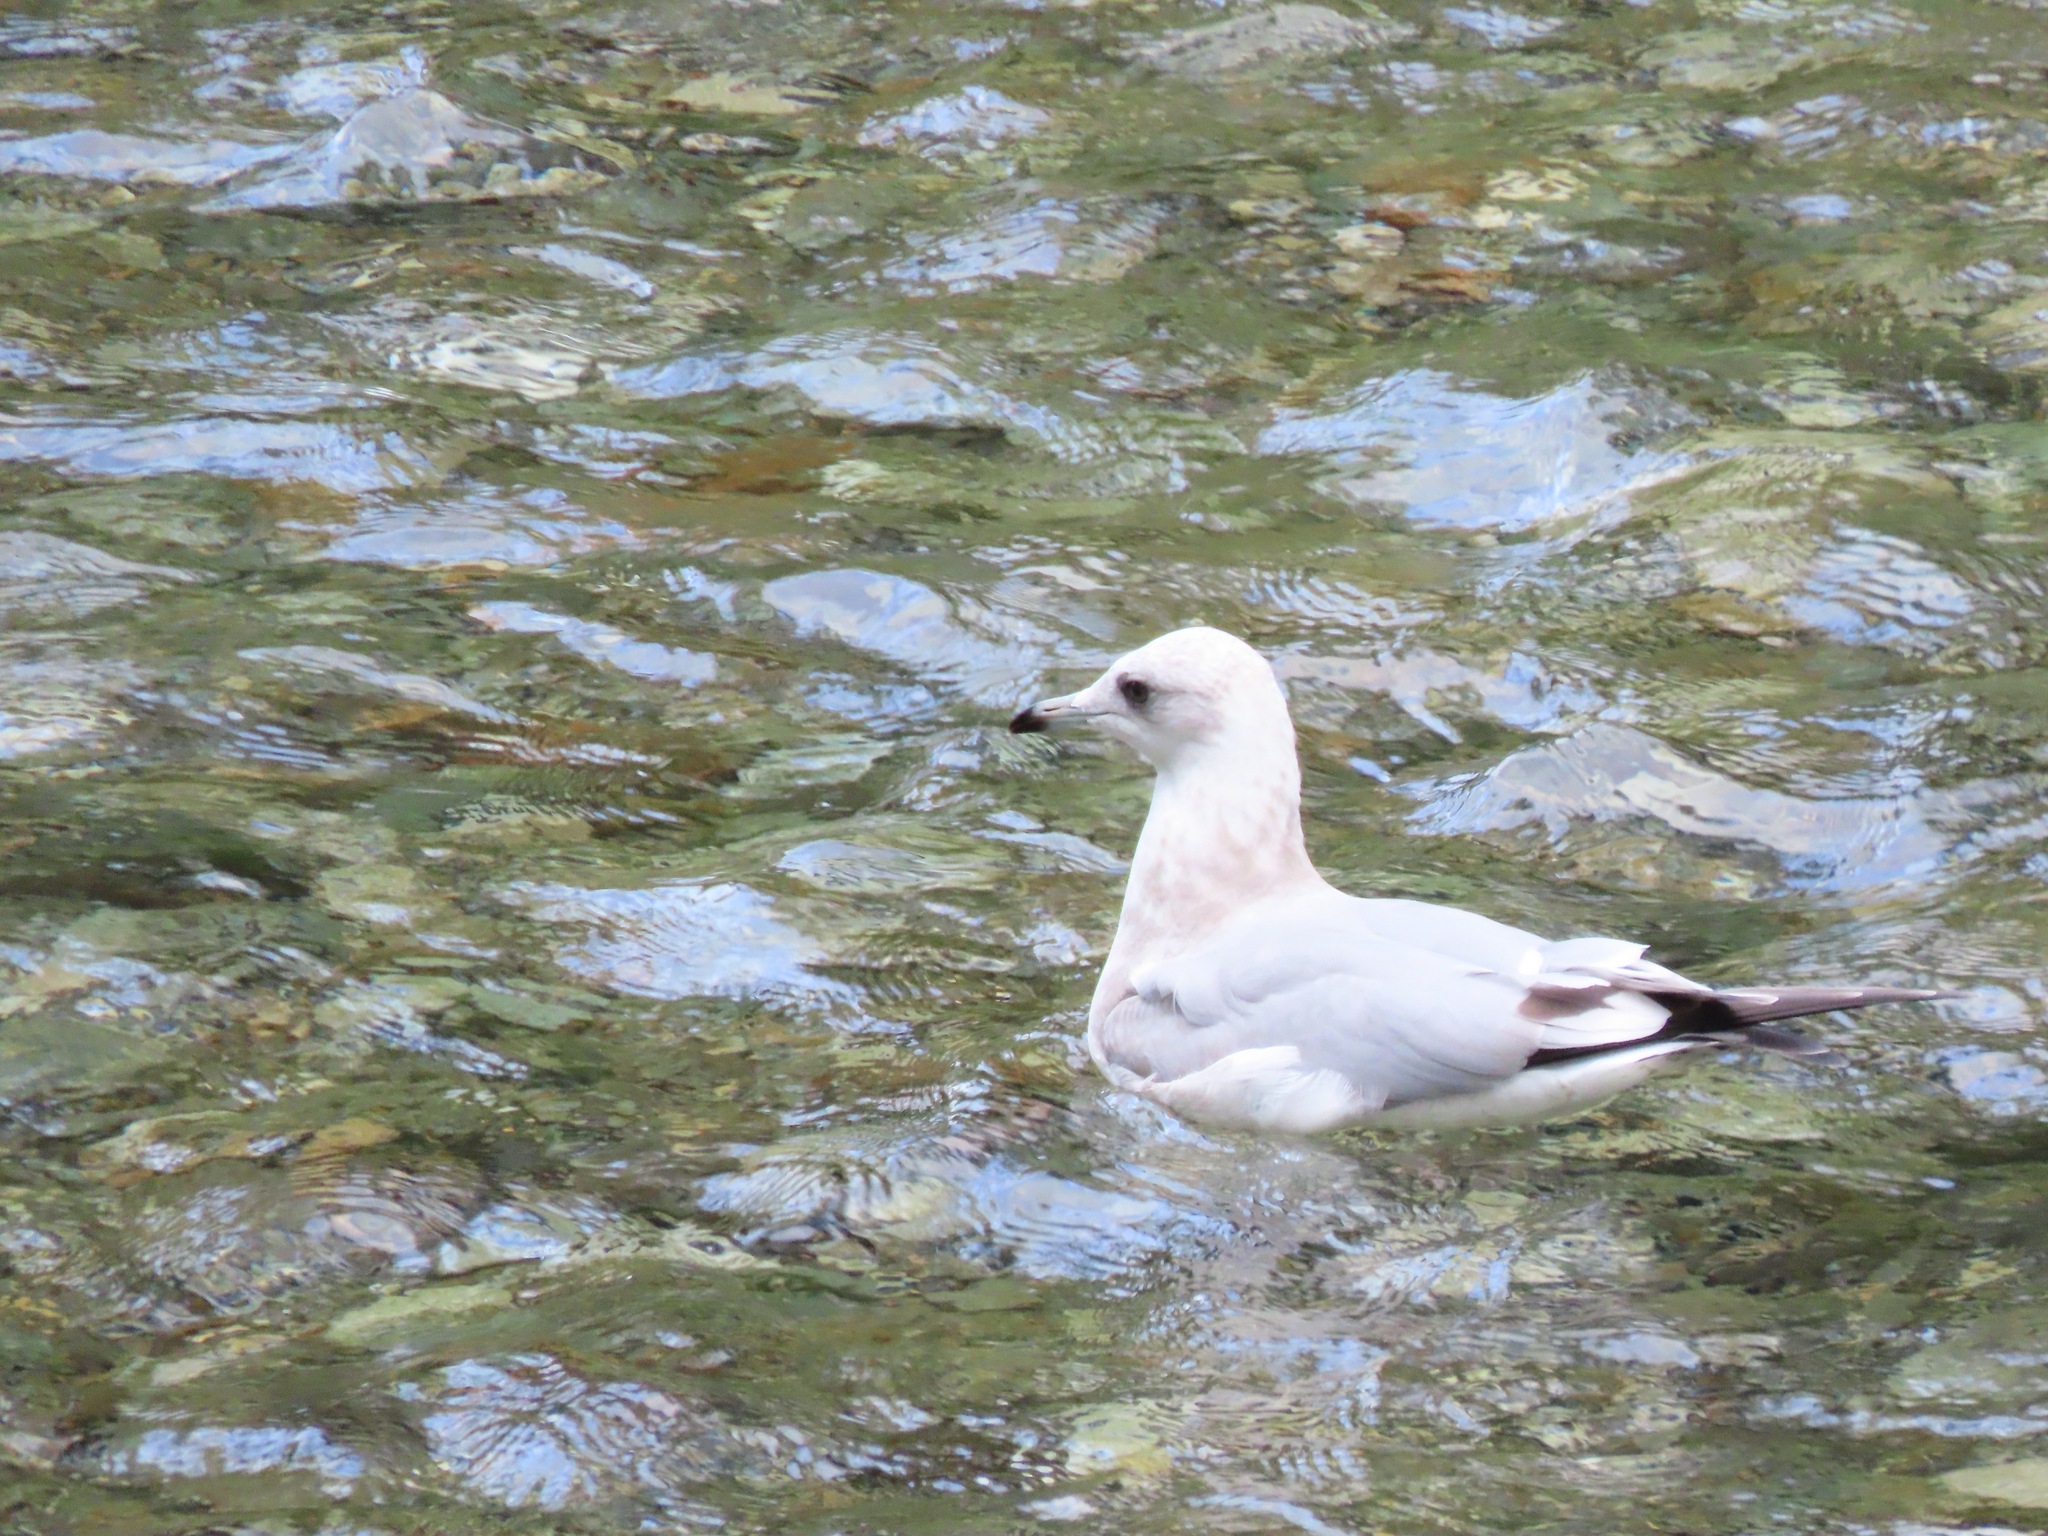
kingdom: Animalia
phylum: Chordata
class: Aves
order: Charadriiformes
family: Laridae
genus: Larus
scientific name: Larus brachyrhynchus
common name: Short-billed gull
